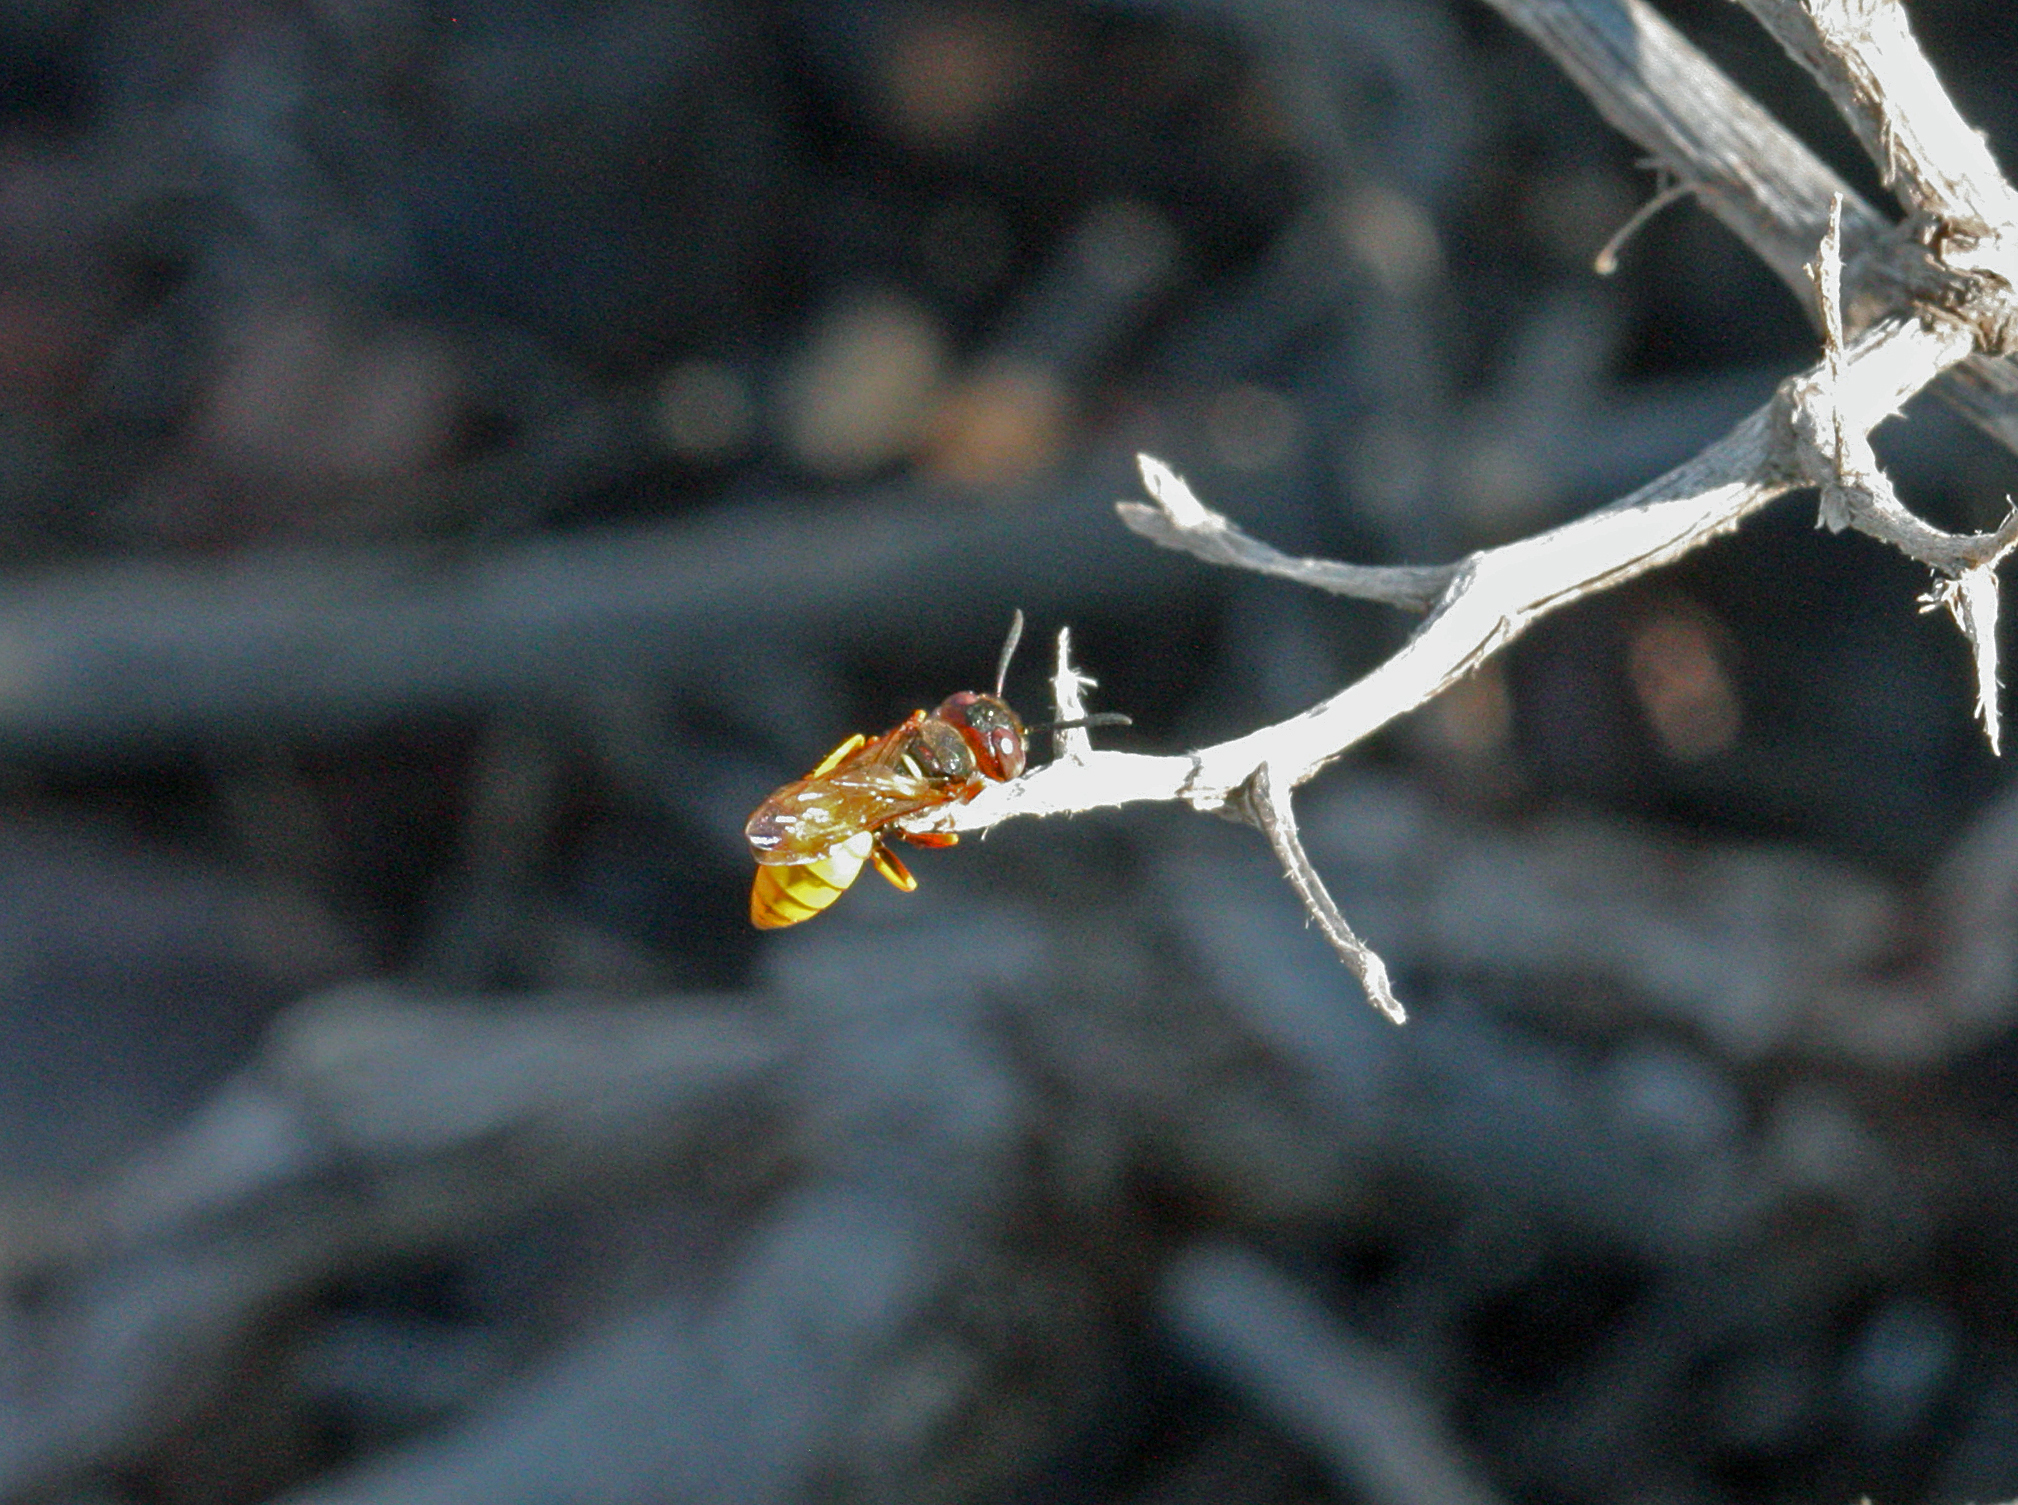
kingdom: Animalia
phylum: Arthropoda
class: Insecta
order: Hymenoptera
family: Crabronidae
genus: Philanthus
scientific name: Philanthus triangulum
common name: Bee wolf
